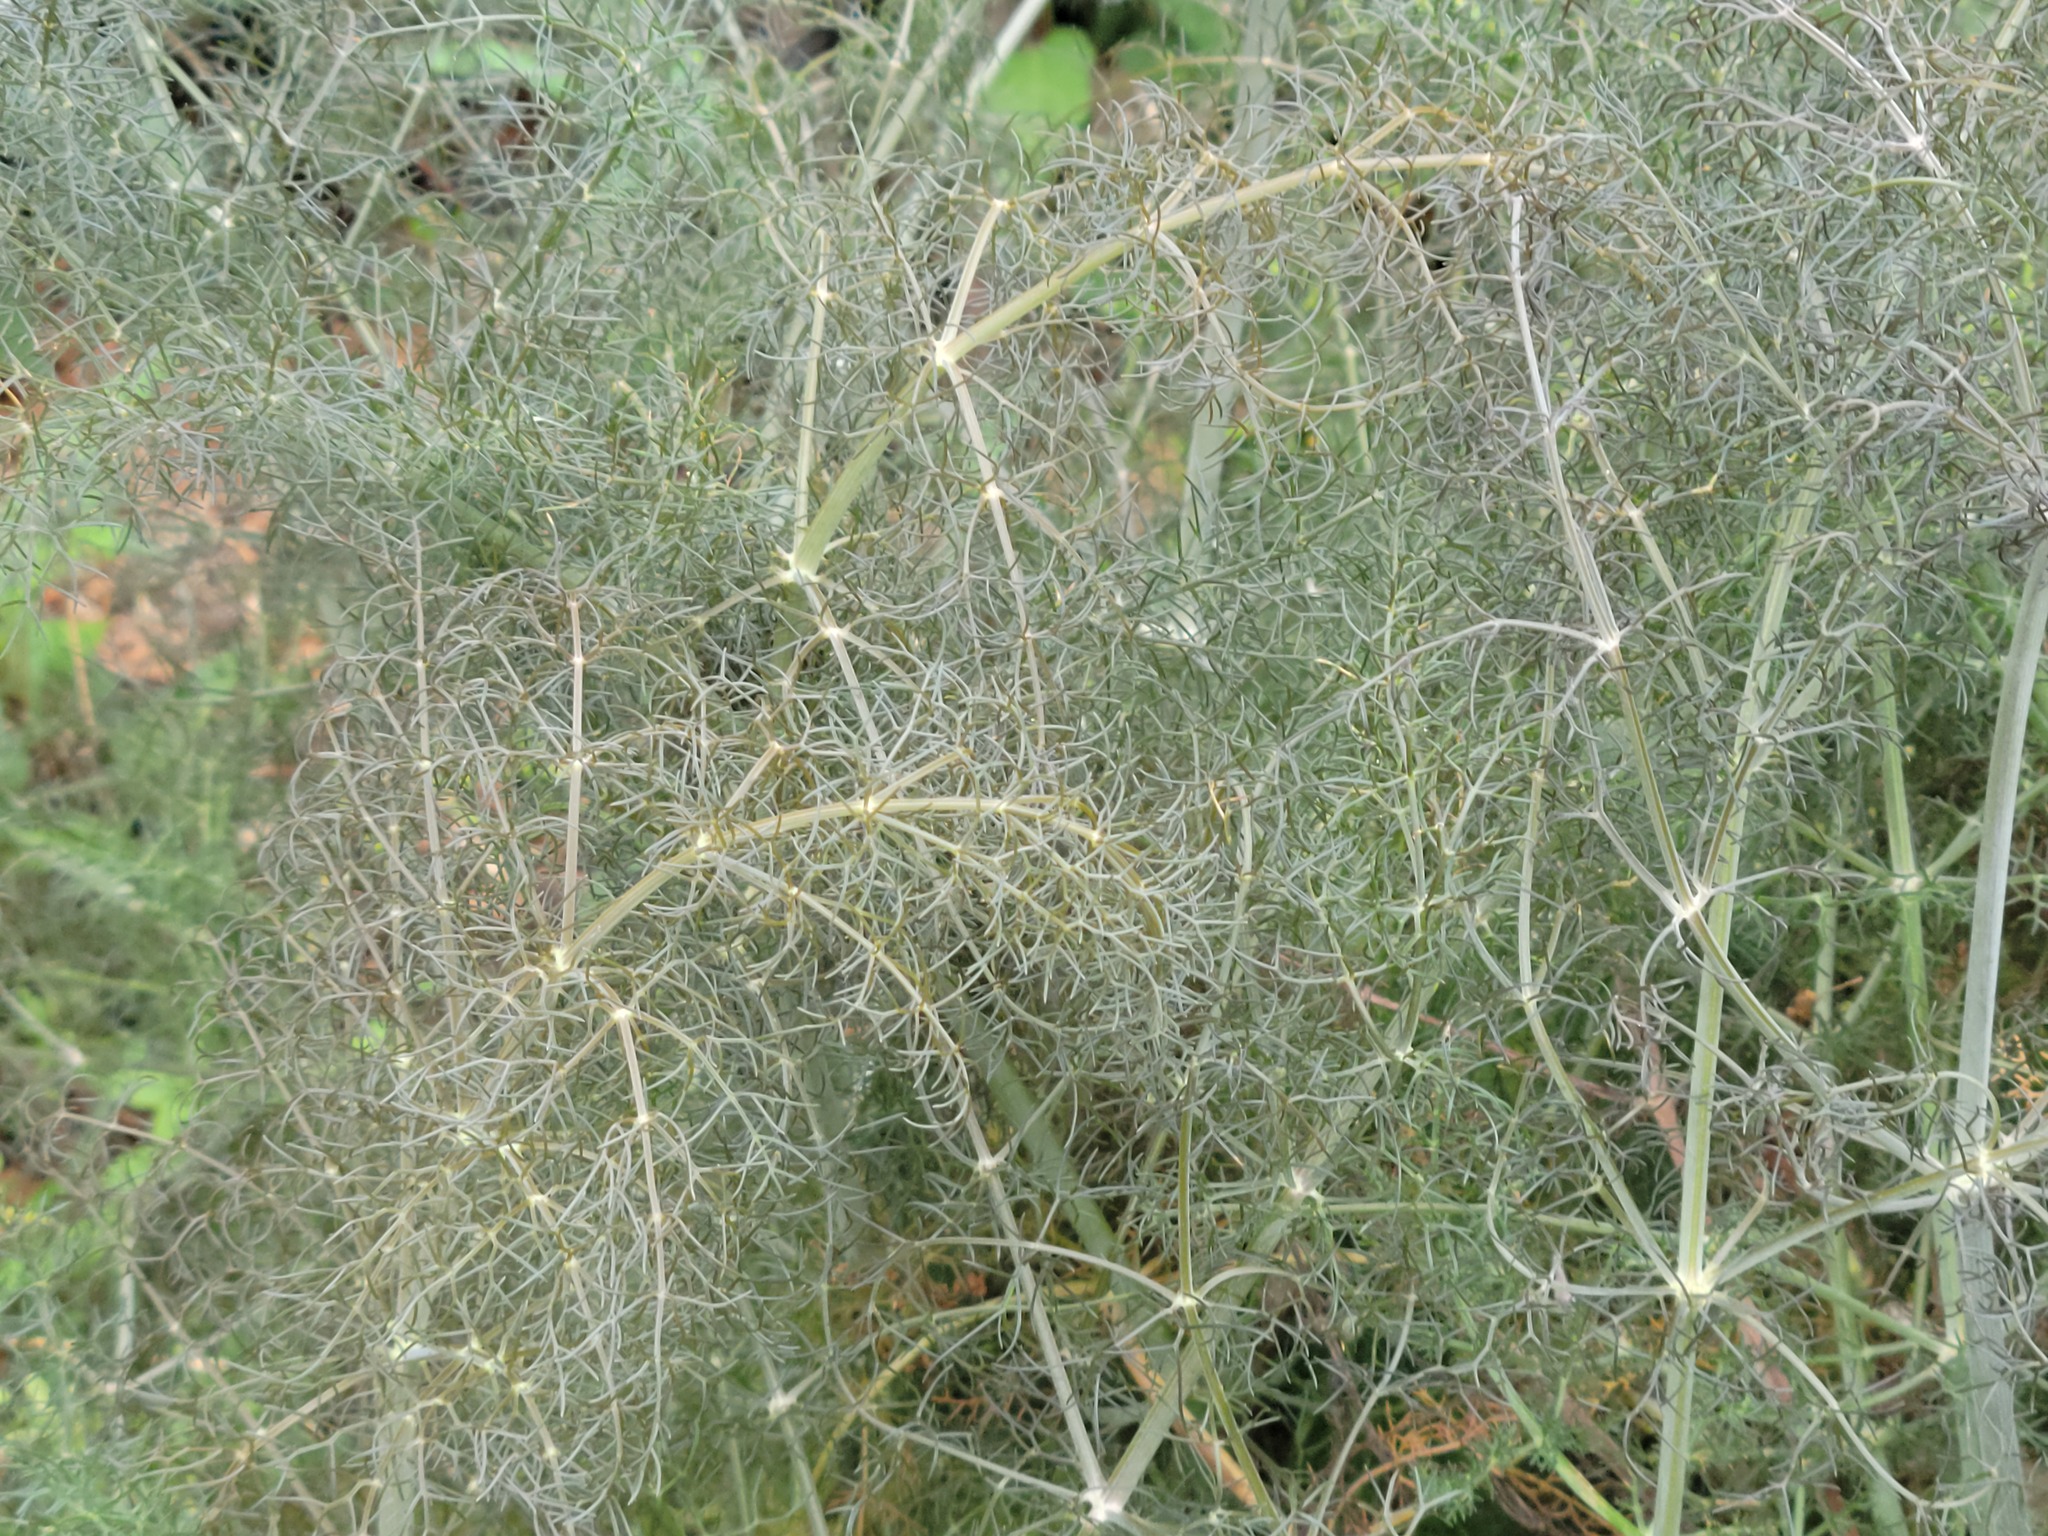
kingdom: Plantae
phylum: Tracheophyta
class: Magnoliopsida
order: Apiales
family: Apiaceae
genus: Foeniculum
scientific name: Foeniculum vulgare
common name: Fennel
